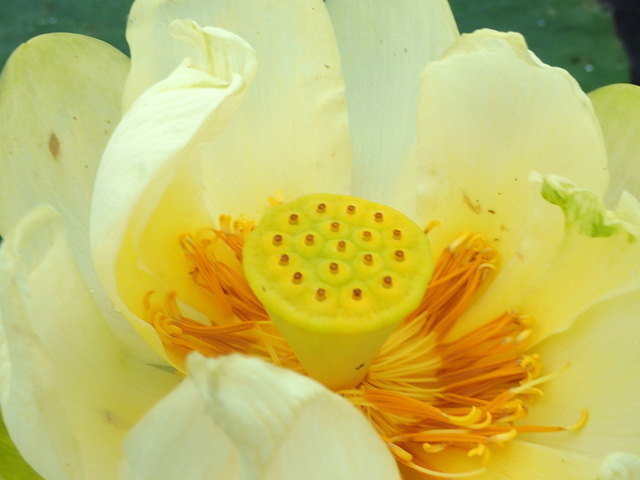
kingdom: Plantae
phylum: Tracheophyta
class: Magnoliopsida
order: Proteales
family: Nelumbonaceae
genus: Nelumbo
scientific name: Nelumbo lutea
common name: American lotus
